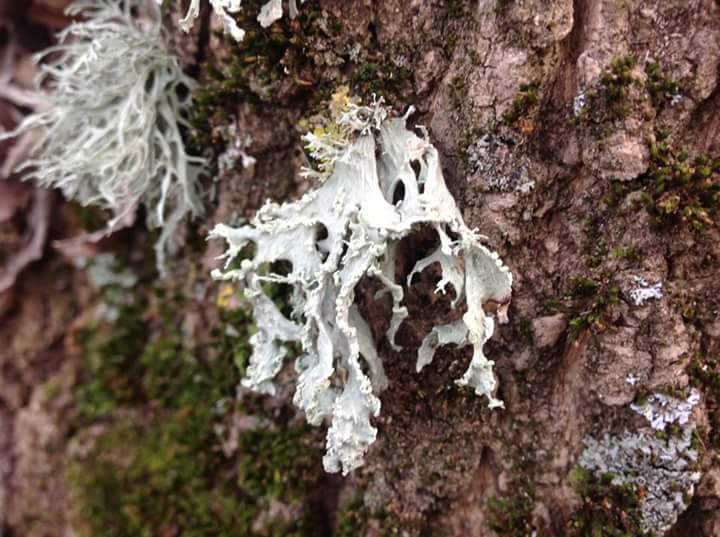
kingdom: Fungi
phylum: Ascomycota
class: Lecanoromycetes
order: Lecanorales
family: Ramalinaceae
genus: Ramalina
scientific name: Ramalina pollinaria
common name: Powdery twig lichen
